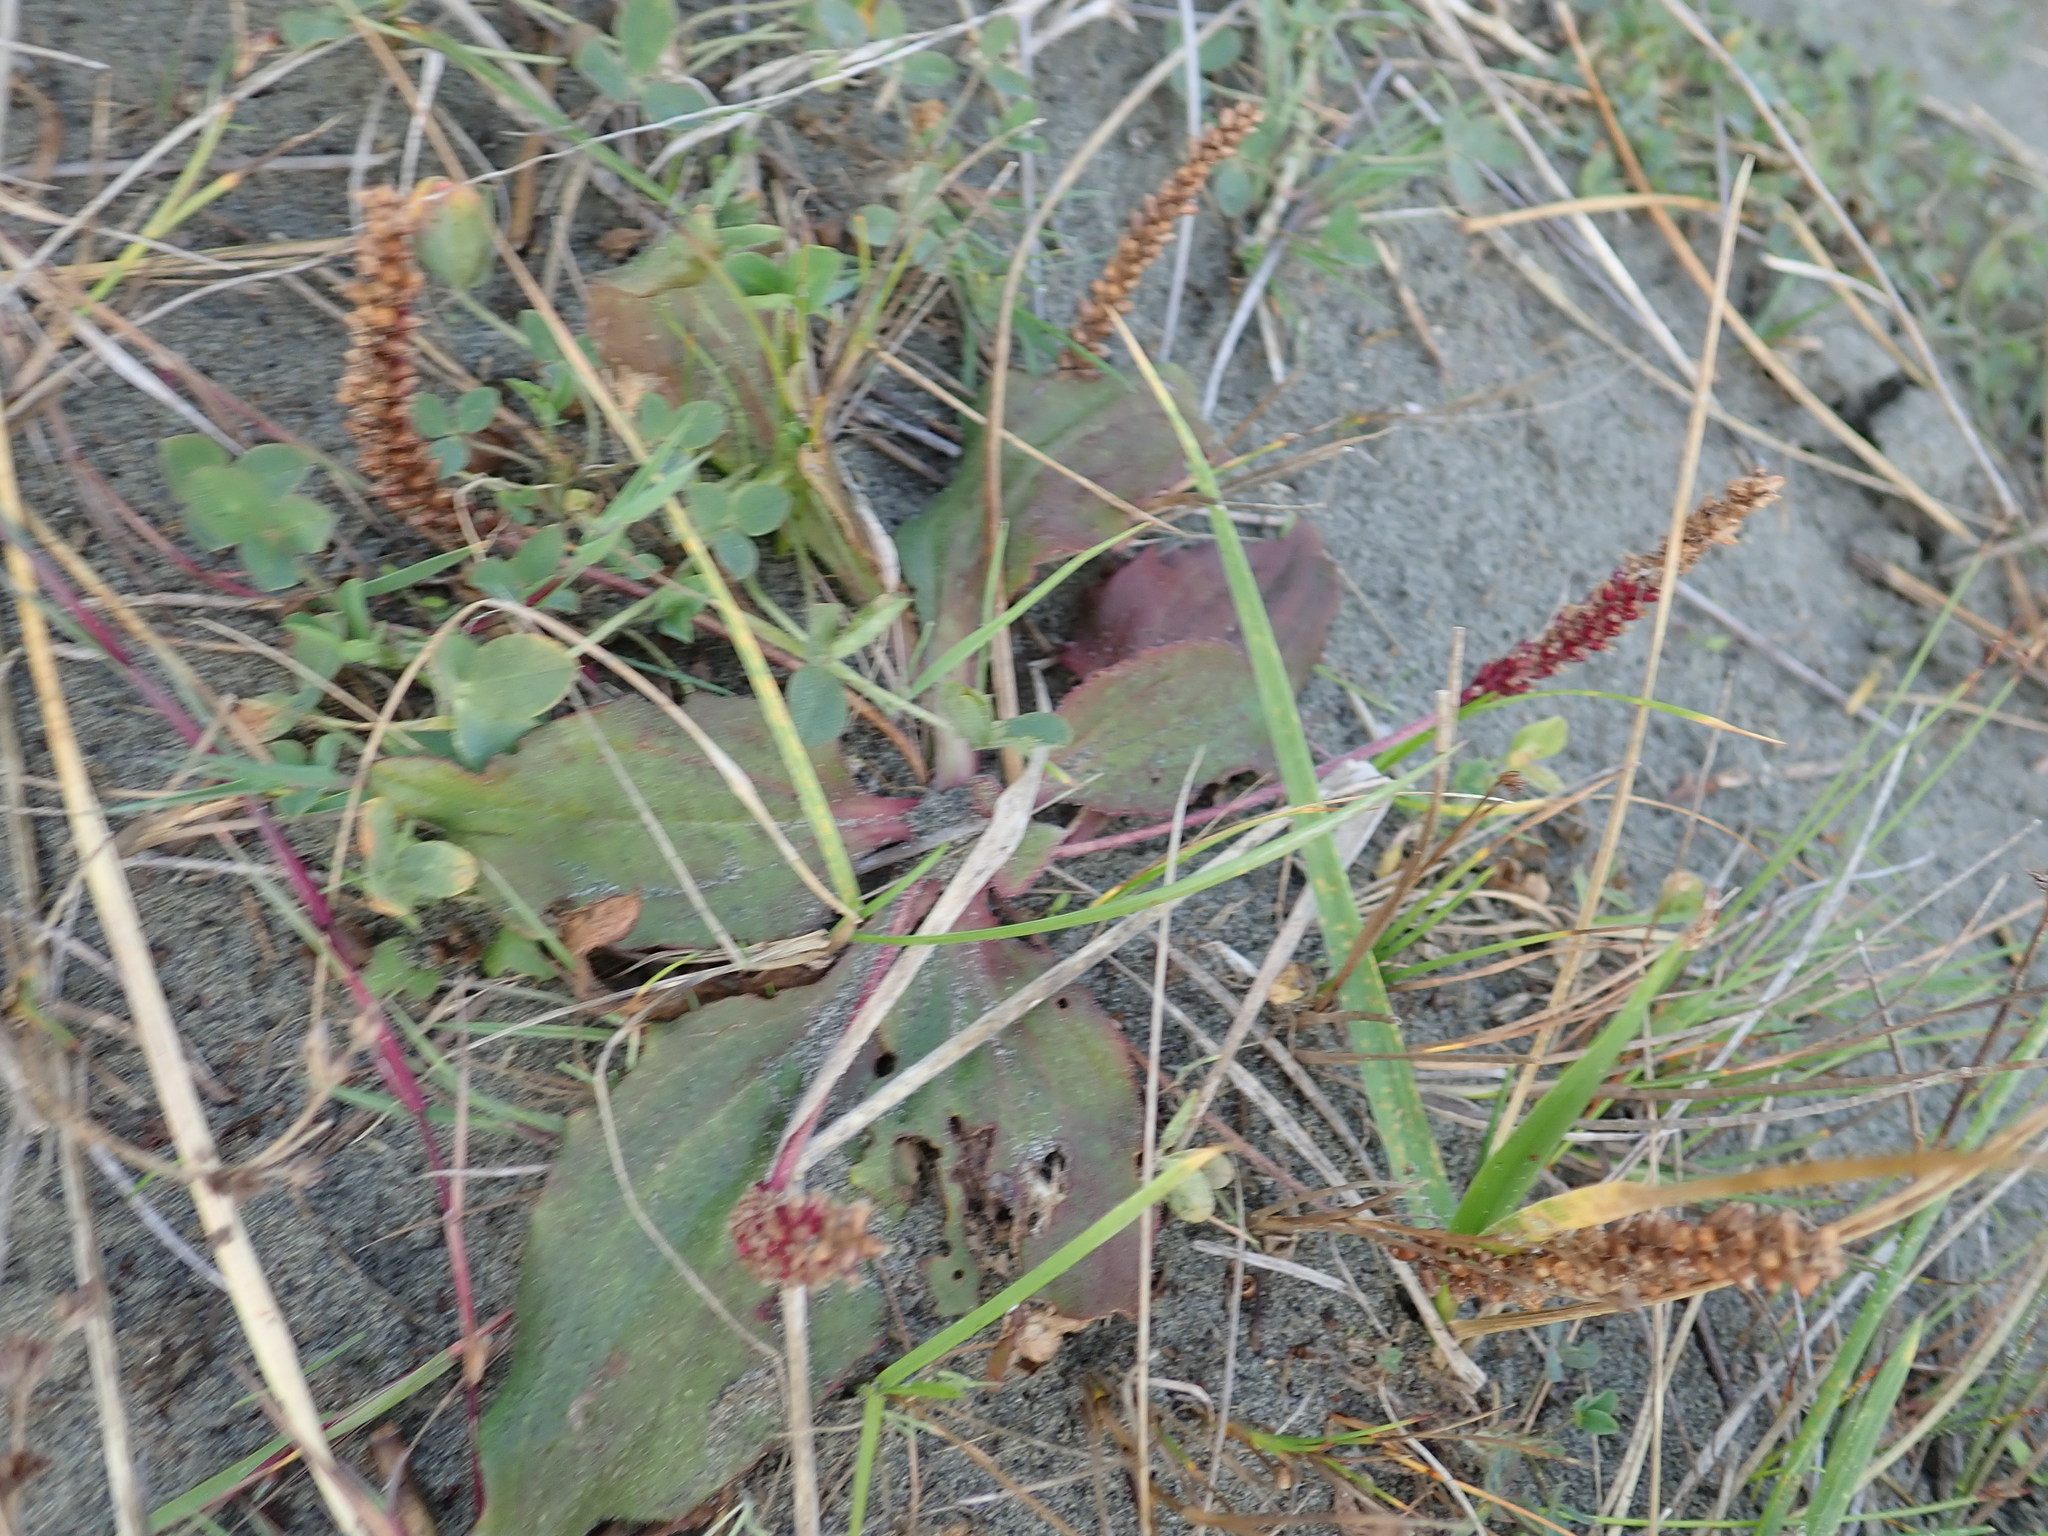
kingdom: Plantae
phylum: Tracheophyta
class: Magnoliopsida
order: Lamiales
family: Plantaginaceae
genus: Plantago
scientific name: Plantago australis
